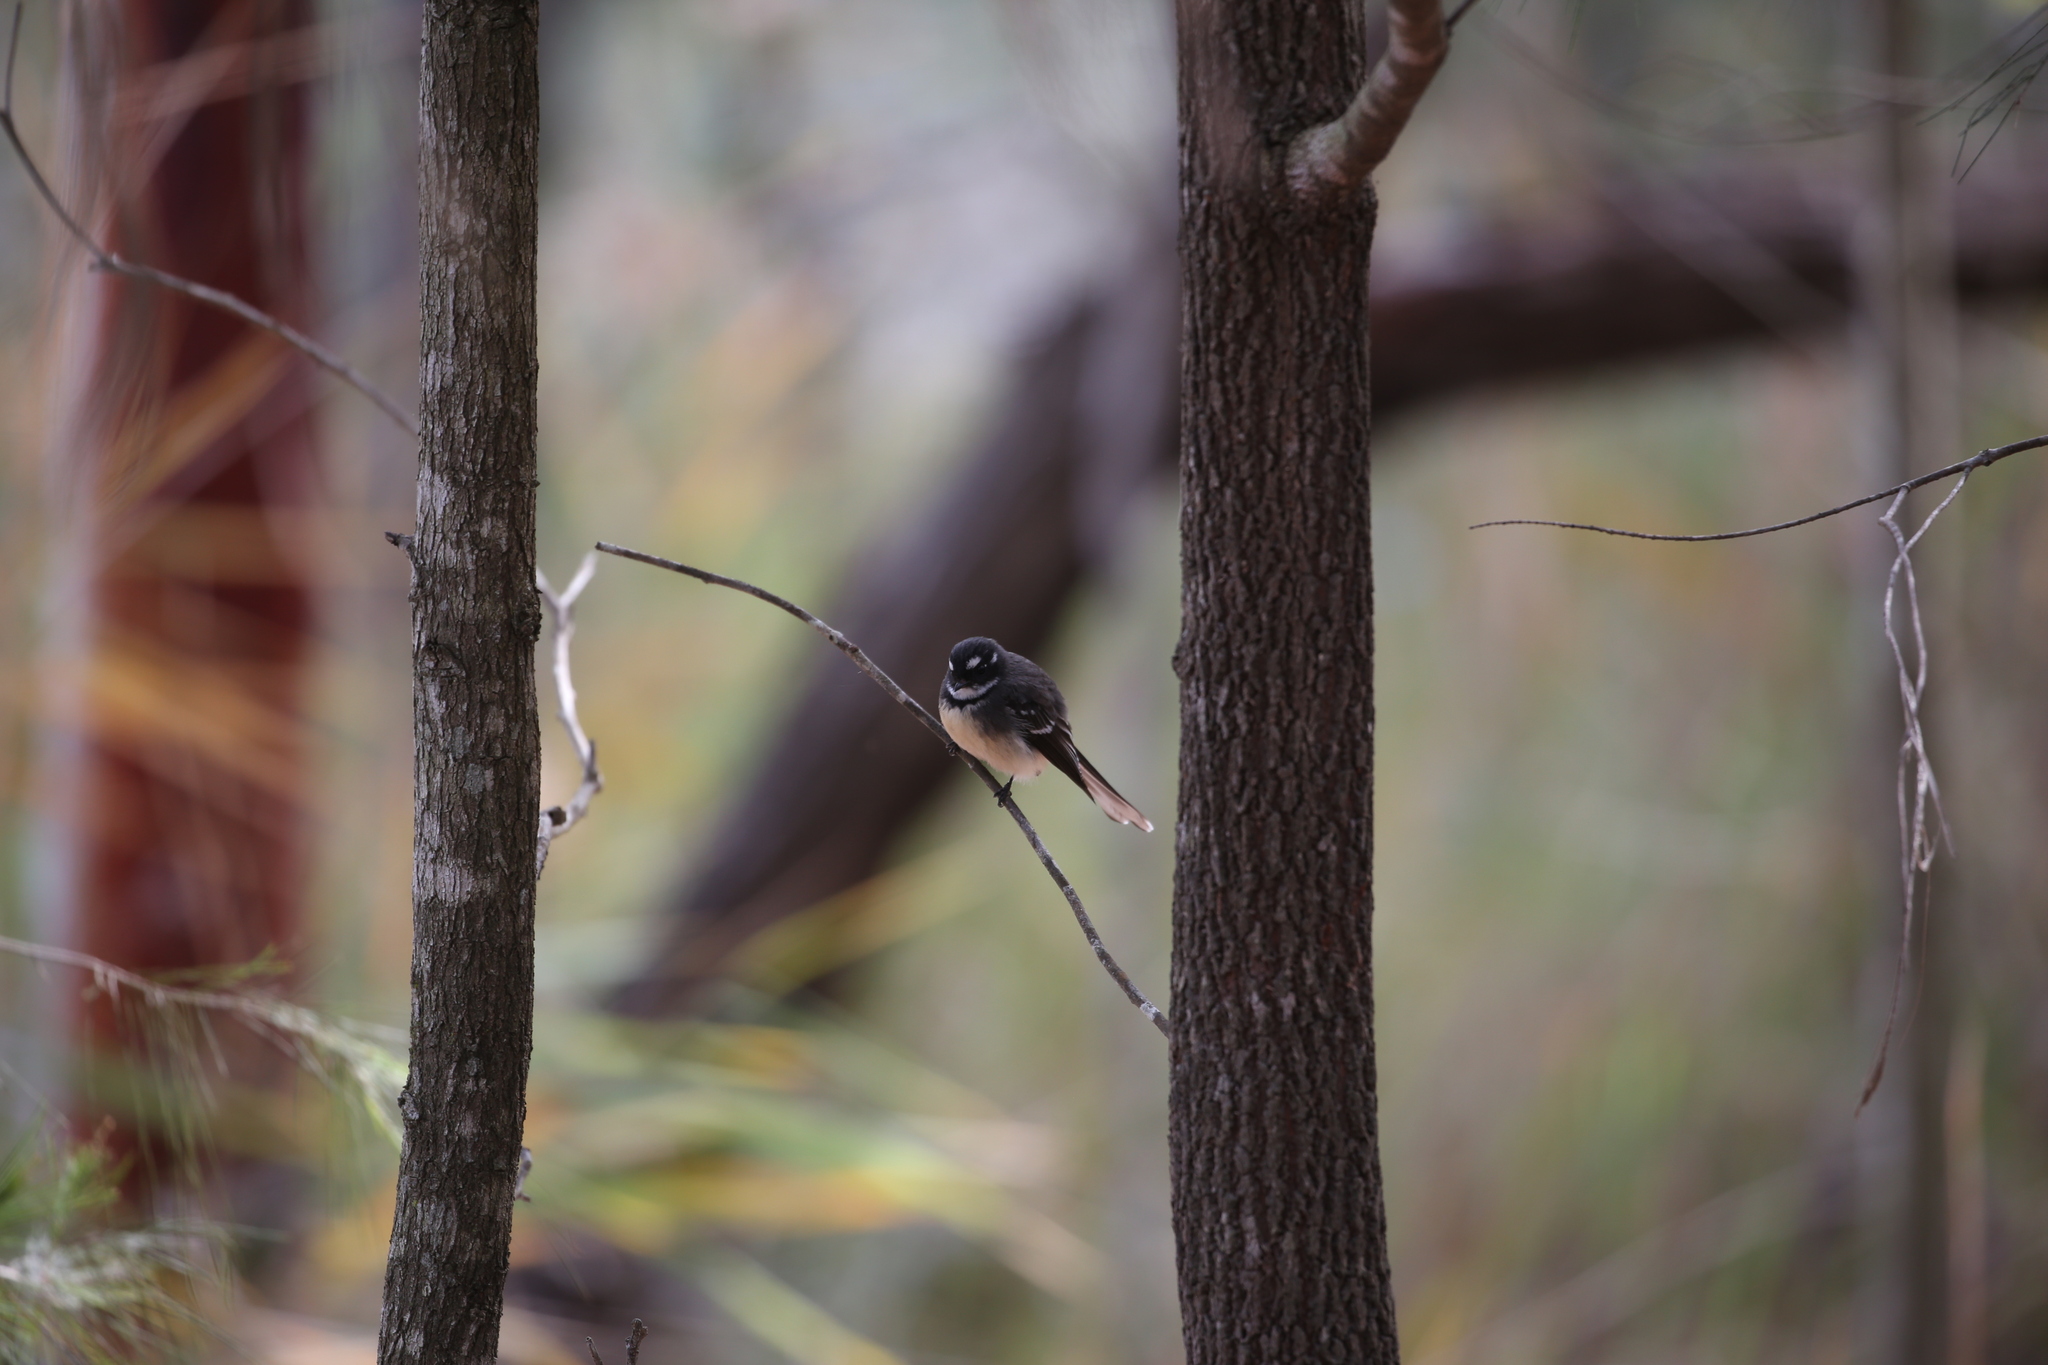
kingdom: Animalia
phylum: Chordata
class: Aves
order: Passeriformes
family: Rhipiduridae
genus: Rhipidura
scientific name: Rhipidura albiscapa
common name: Grey fantail
